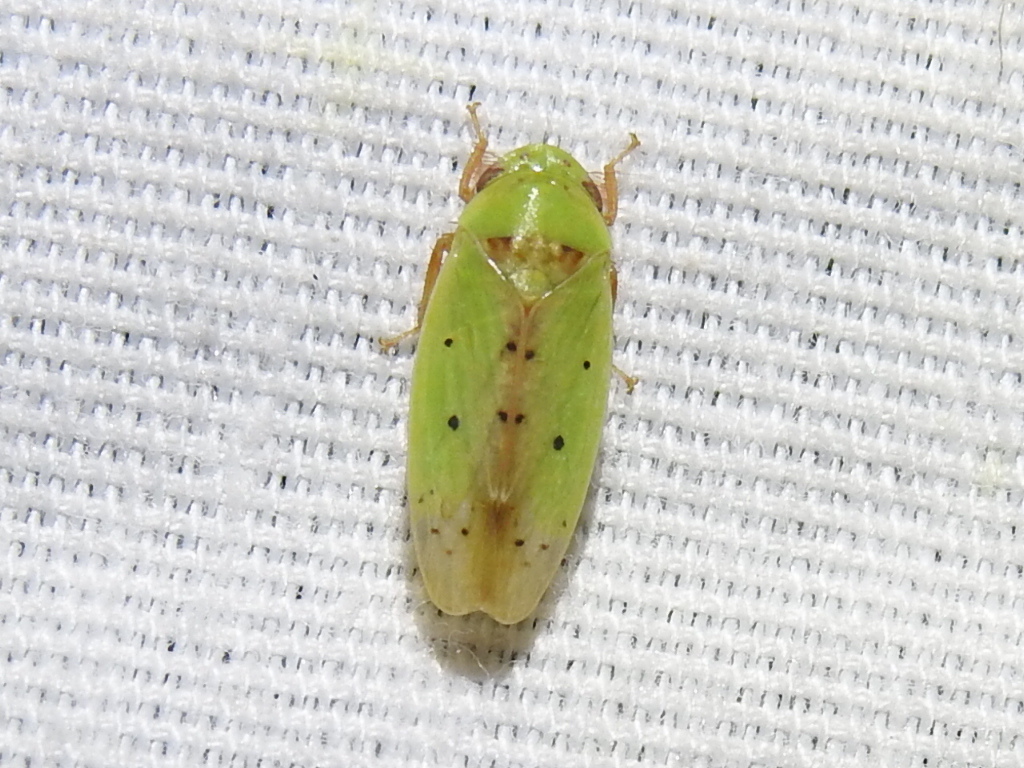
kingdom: Animalia
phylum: Arthropoda
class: Insecta
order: Hemiptera
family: Cicadellidae
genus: Ponana
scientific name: Ponana
